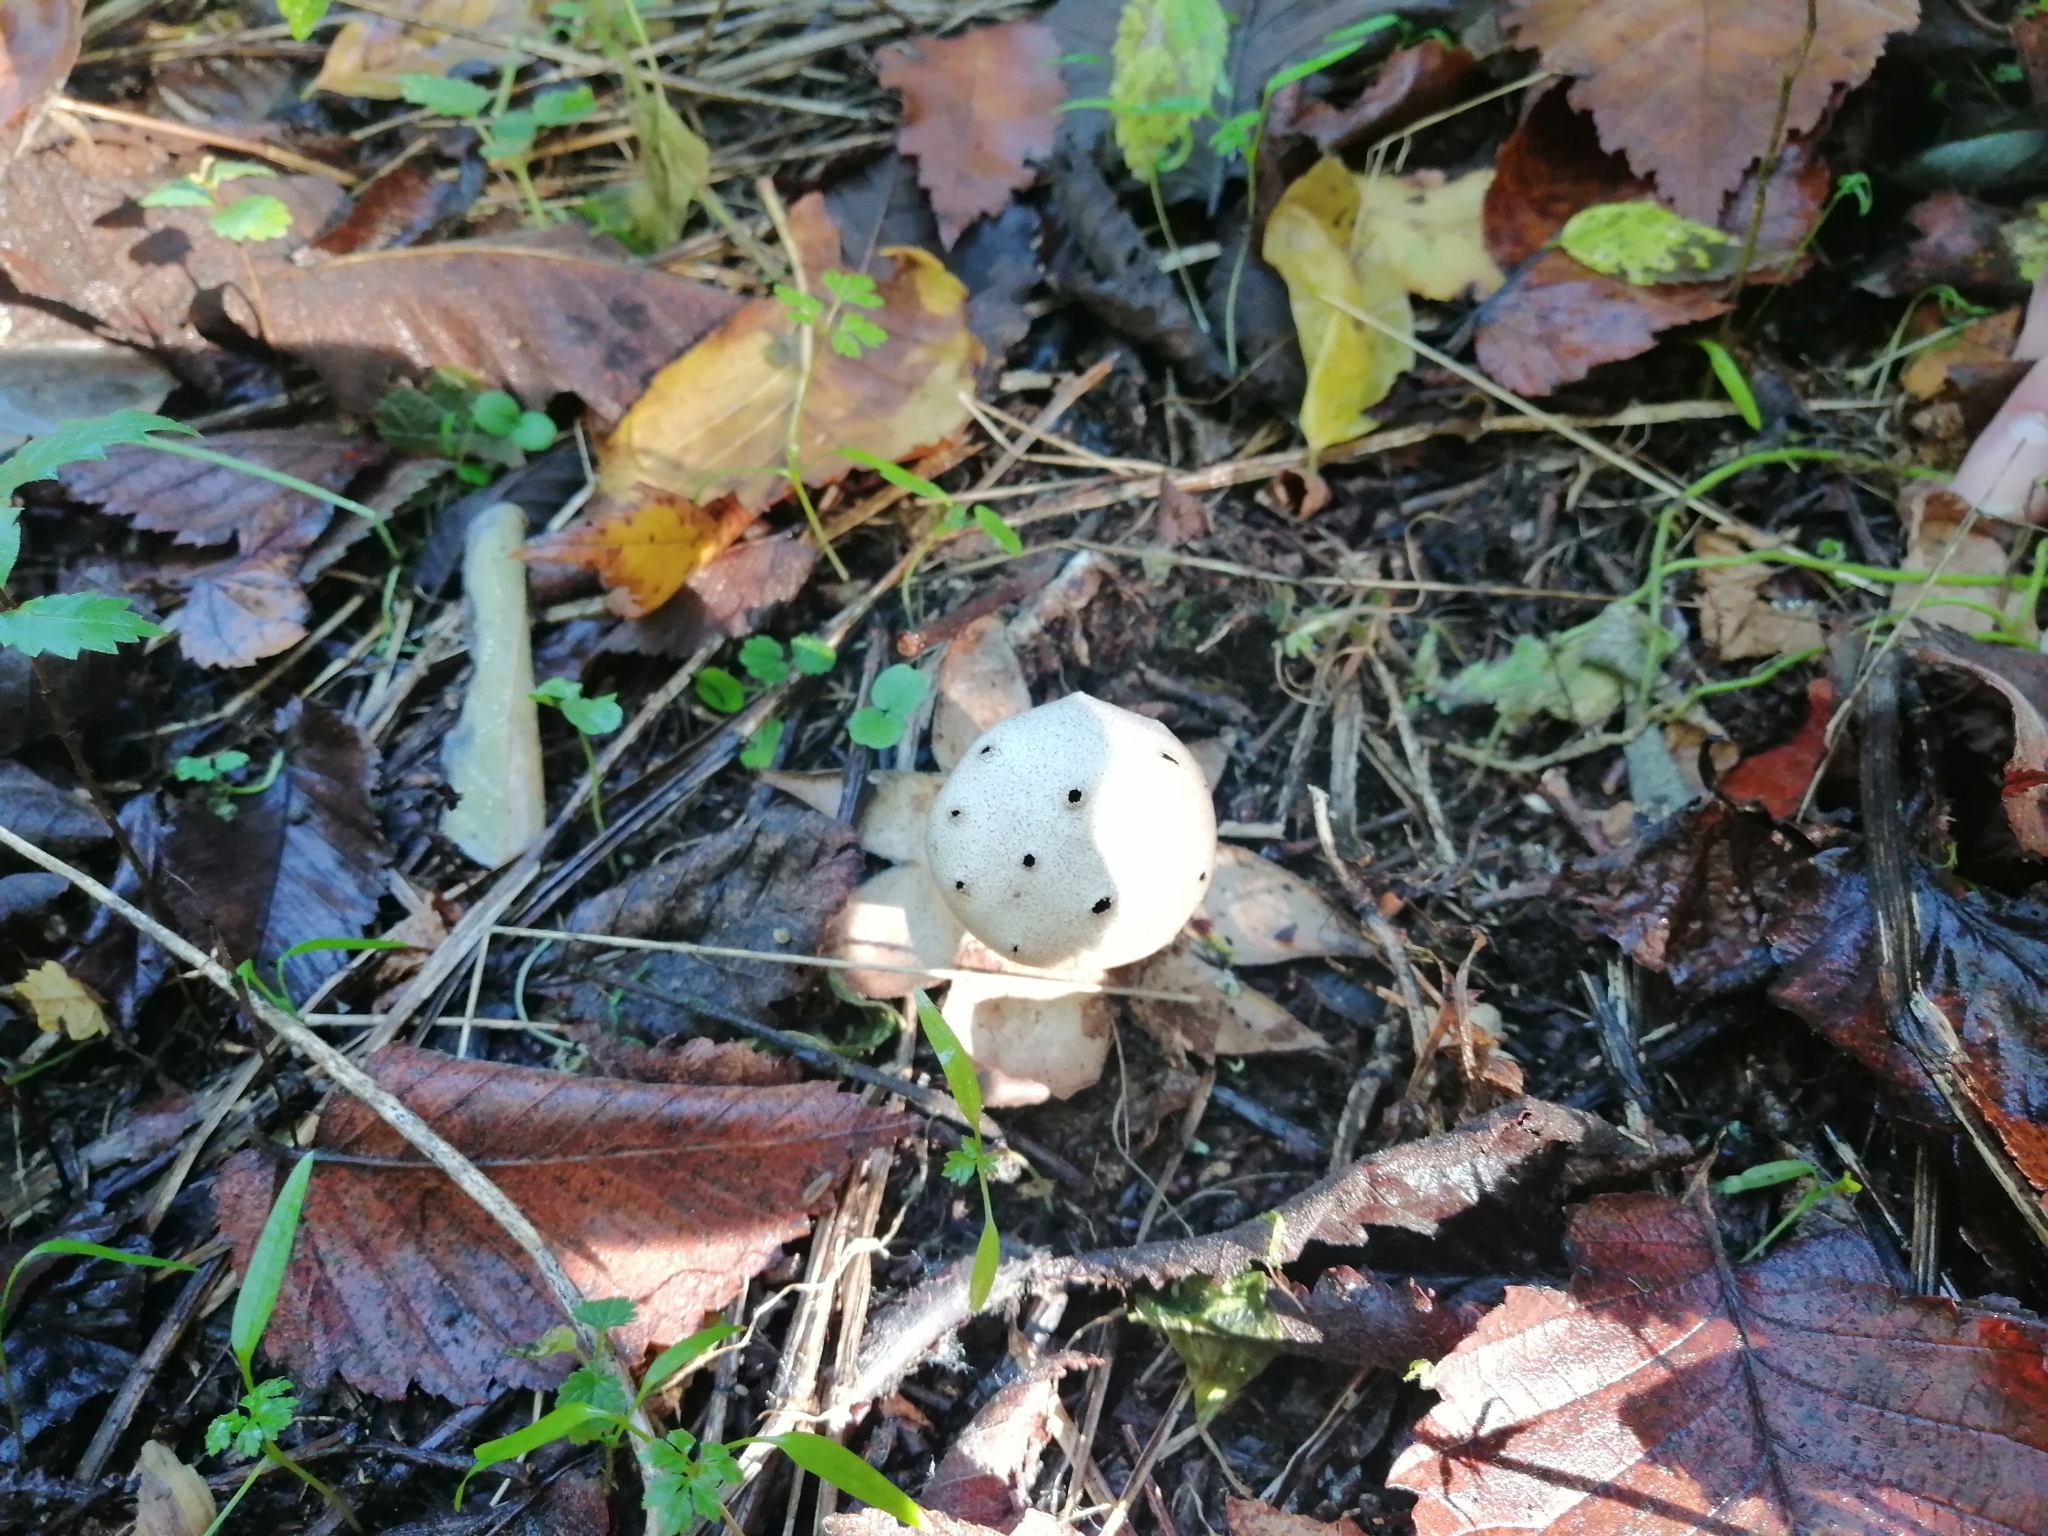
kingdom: Fungi
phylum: Basidiomycota
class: Agaricomycetes
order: Geastrales
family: Geastraceae
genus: Myriostoma
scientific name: Myriostoma coliforme
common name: Pepper pot
